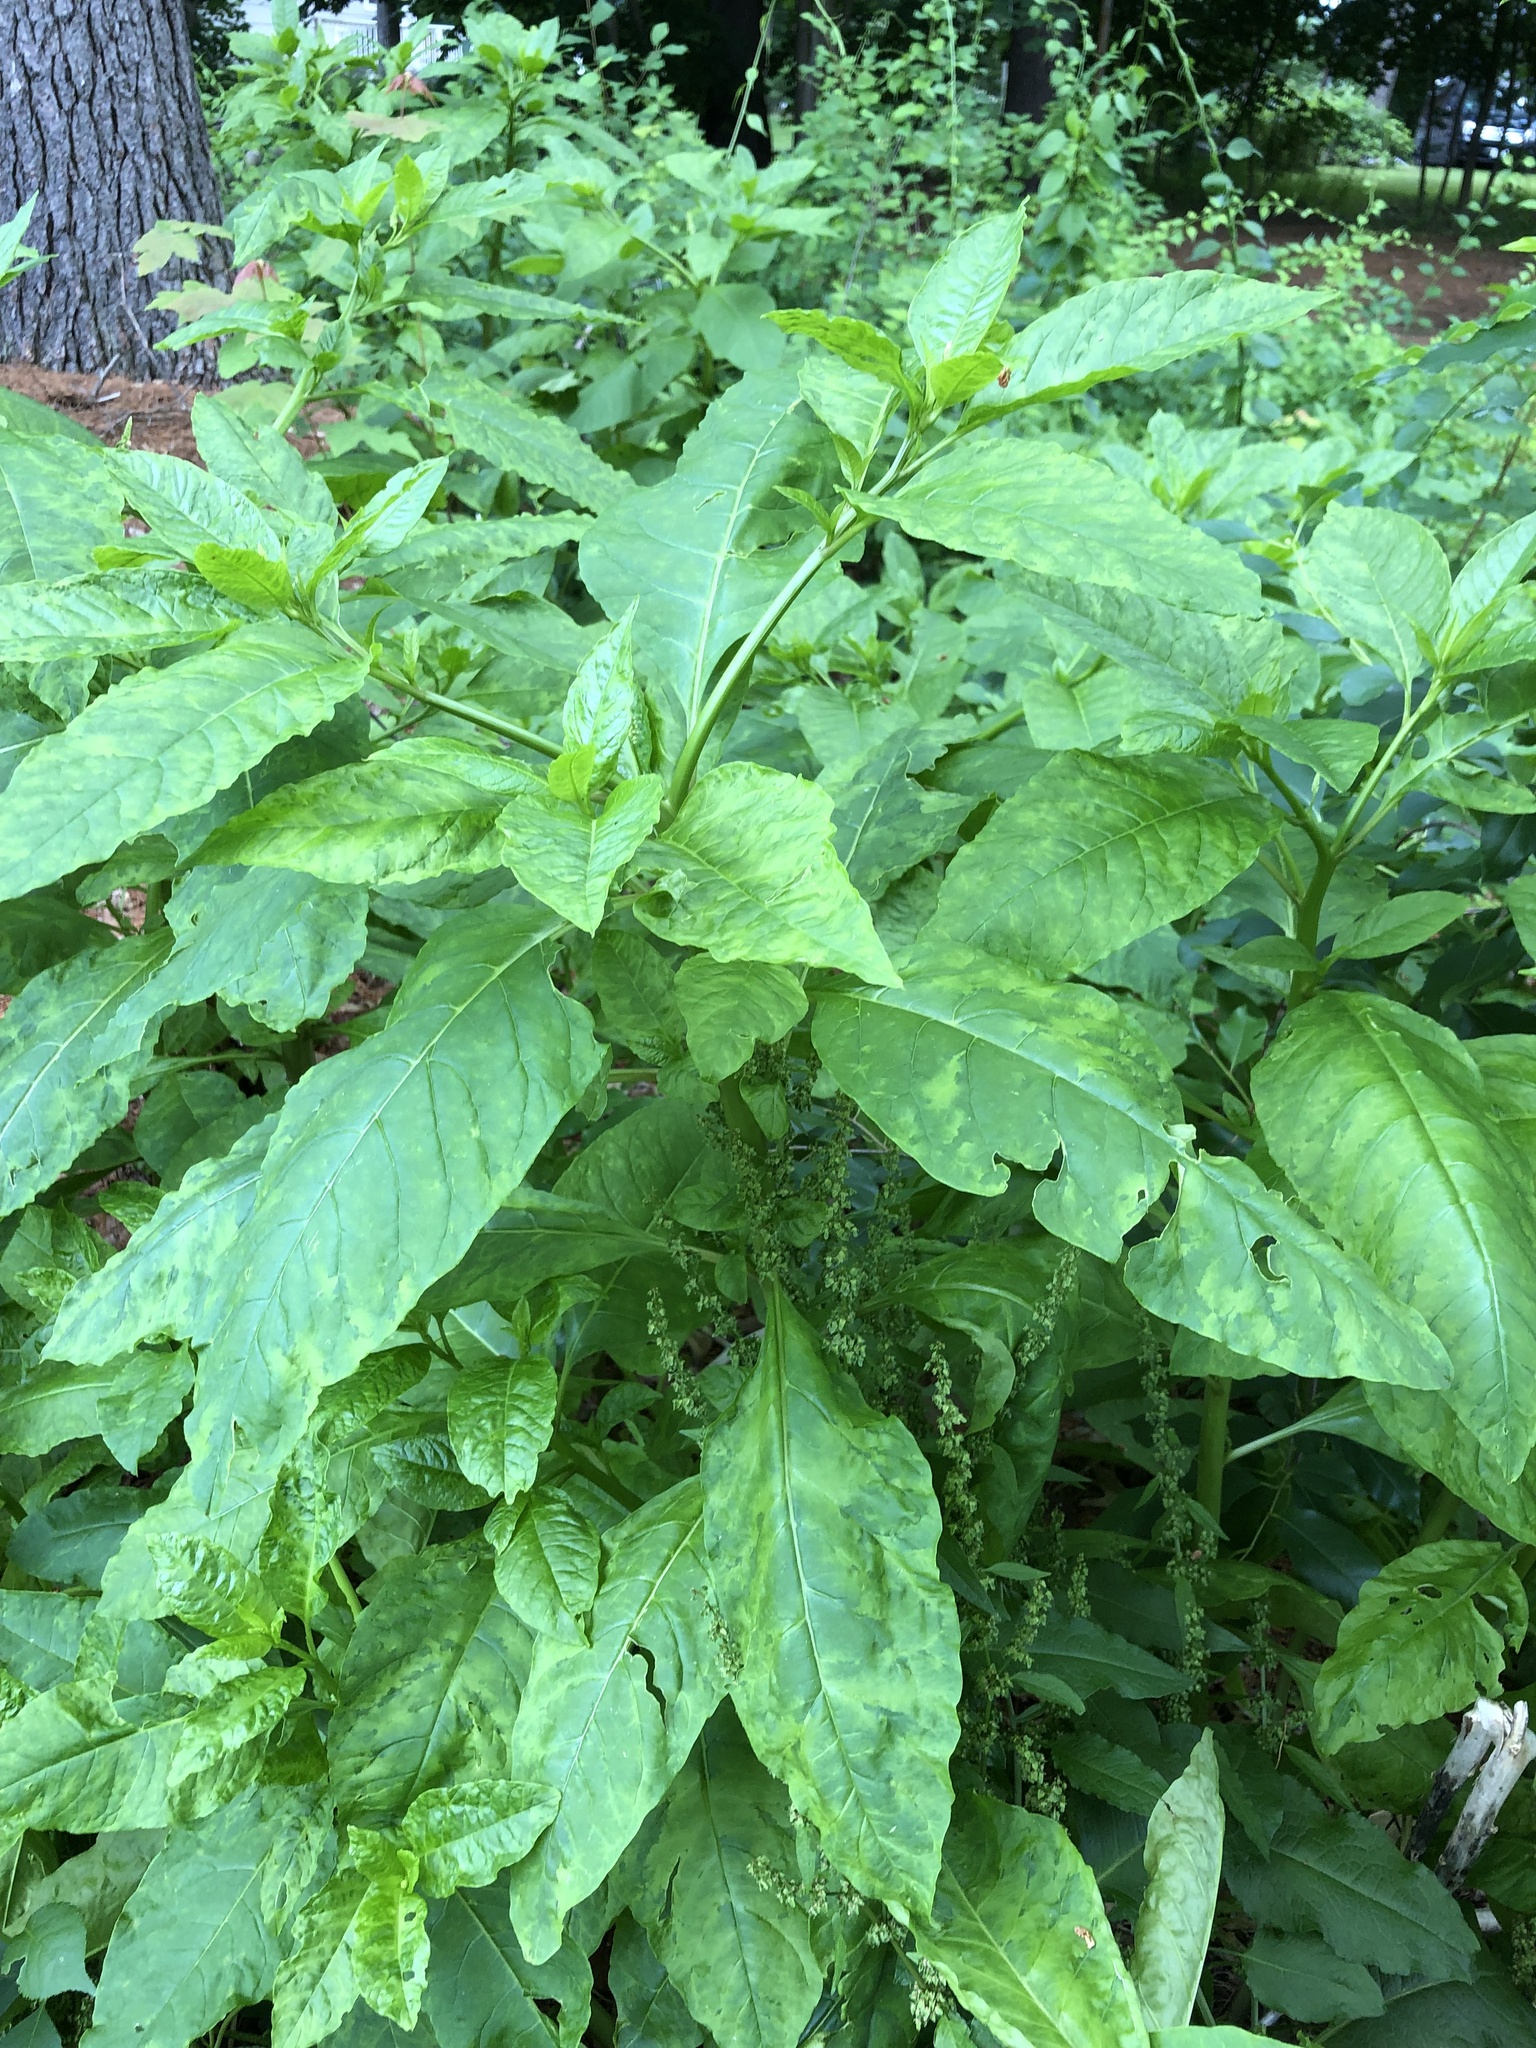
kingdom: Viruses
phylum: Pisuviricota
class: Stelpaviricetes
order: Patatavirales
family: Potyviridae
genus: Potyvirus
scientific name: Potyvirus Pokeweed mosaic virus
